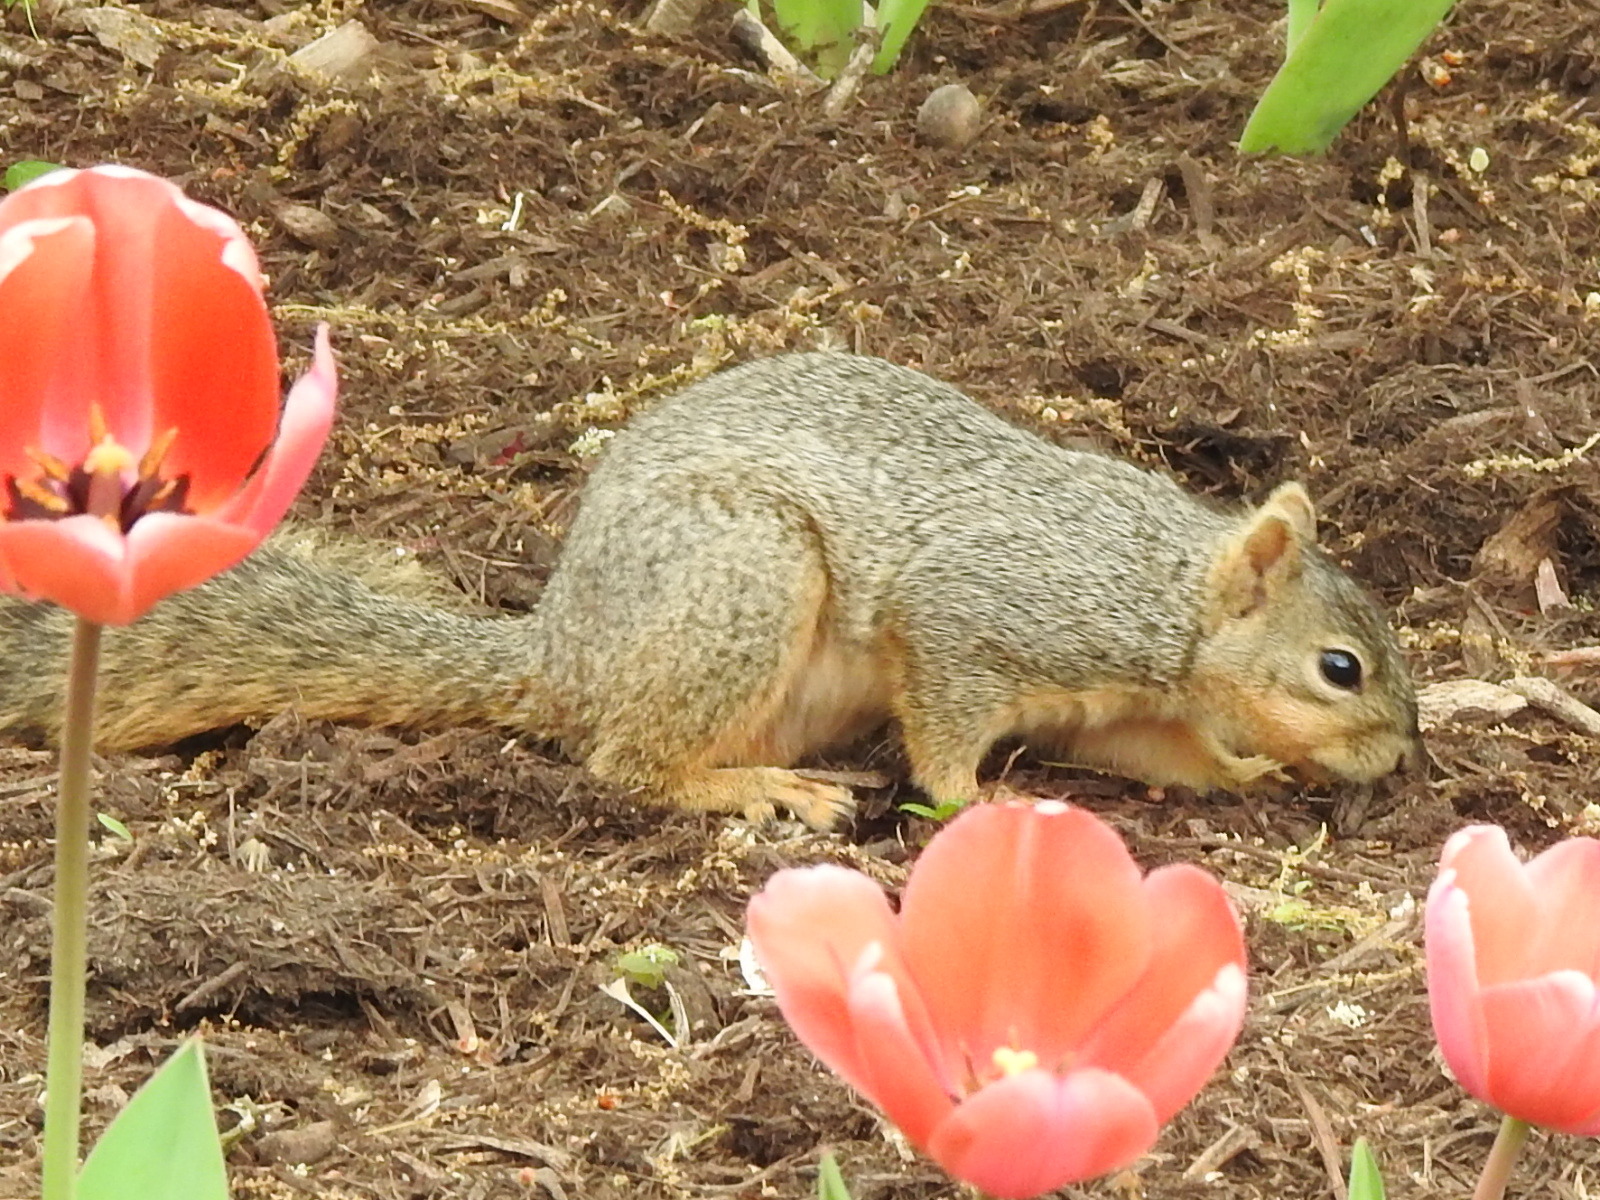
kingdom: Animalia
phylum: Chordata
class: Mammalia
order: Rodentia
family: Sciuridae
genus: Sciurus
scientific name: Sciurus niger
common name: Fox squirrel
